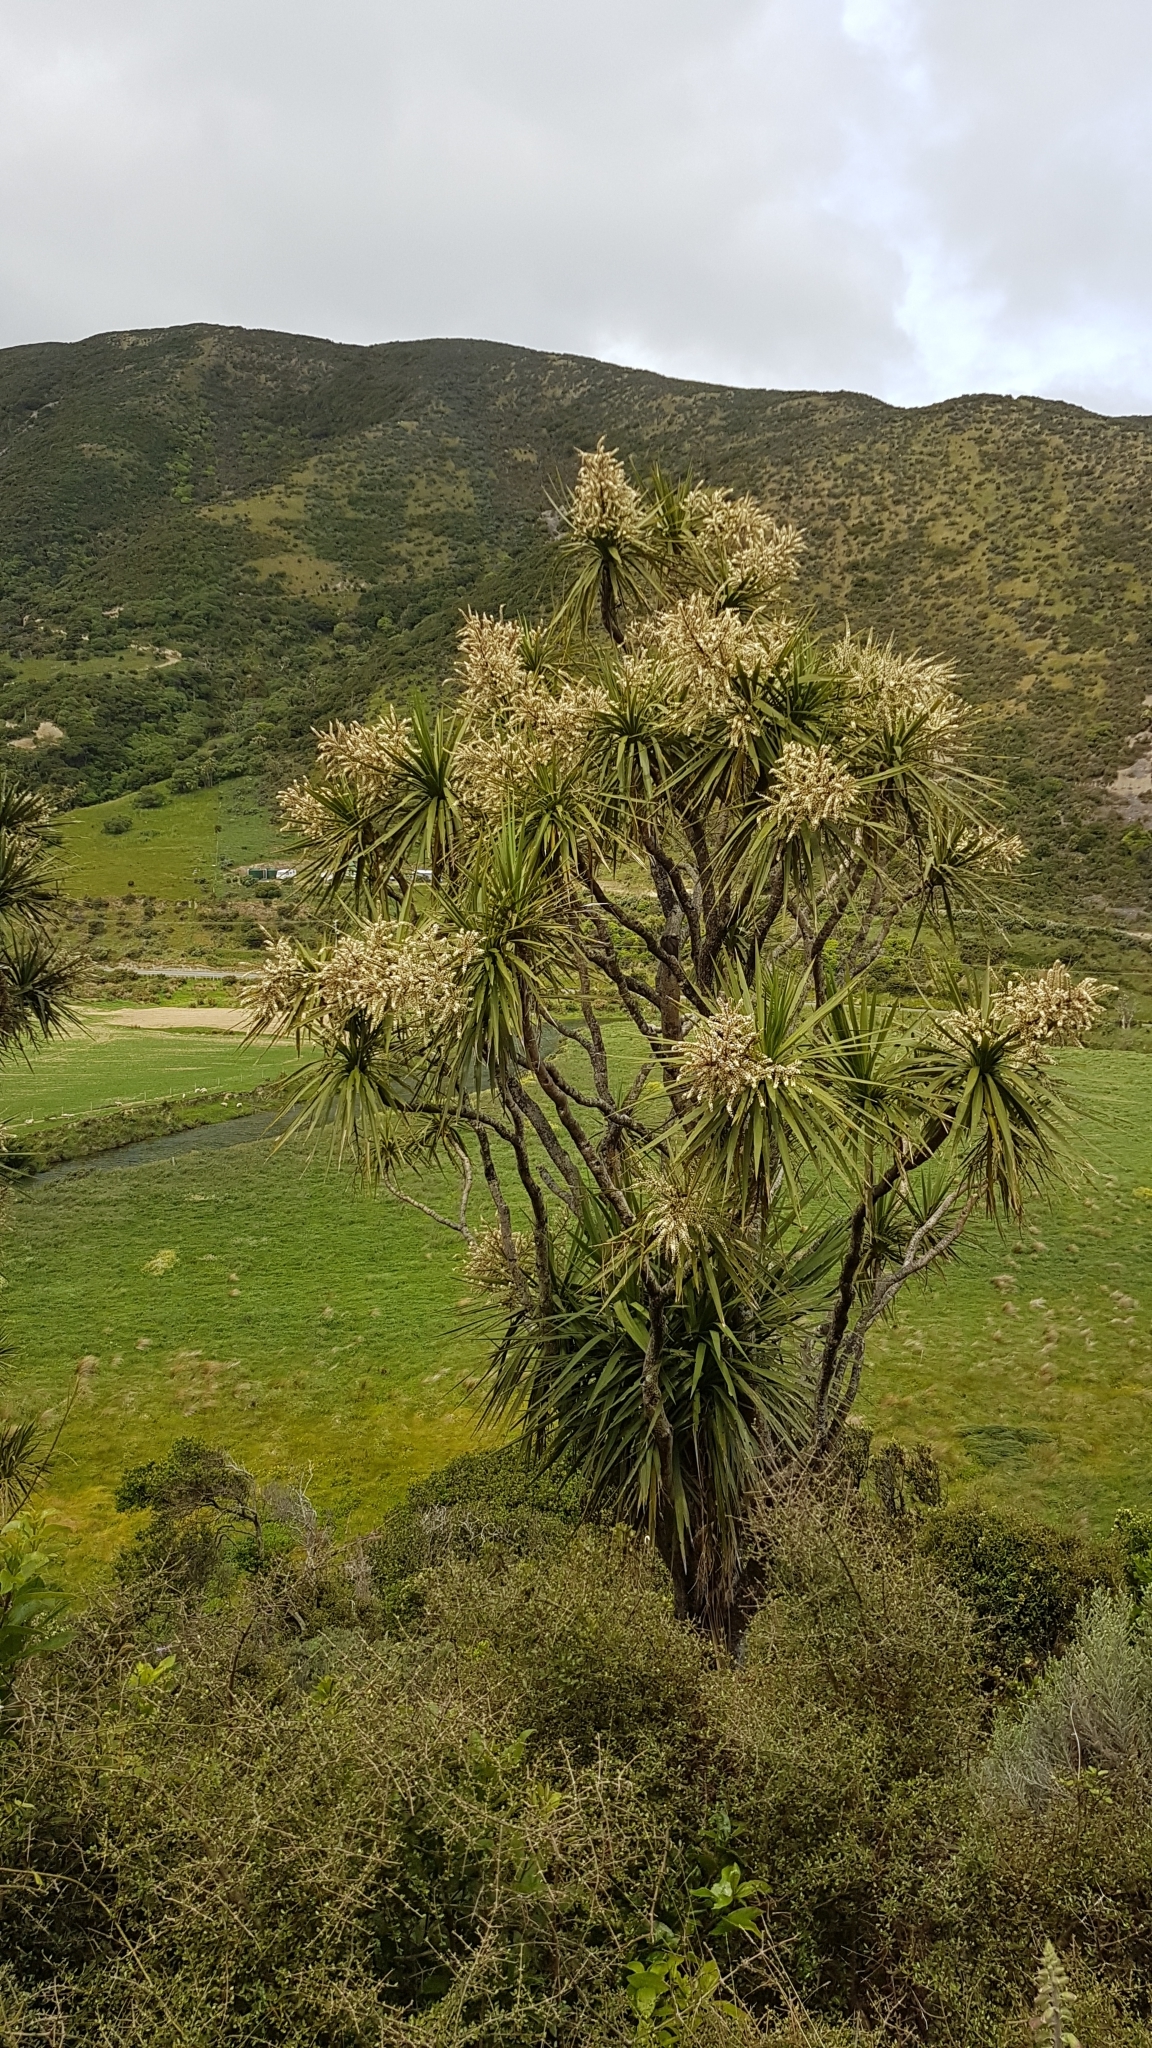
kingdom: Plantae
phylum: Tracheophyta
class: Liliopsida
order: Asparagales
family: Asparagaceae
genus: Cordyline
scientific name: Cordyline australis
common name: Cabbage-palm
